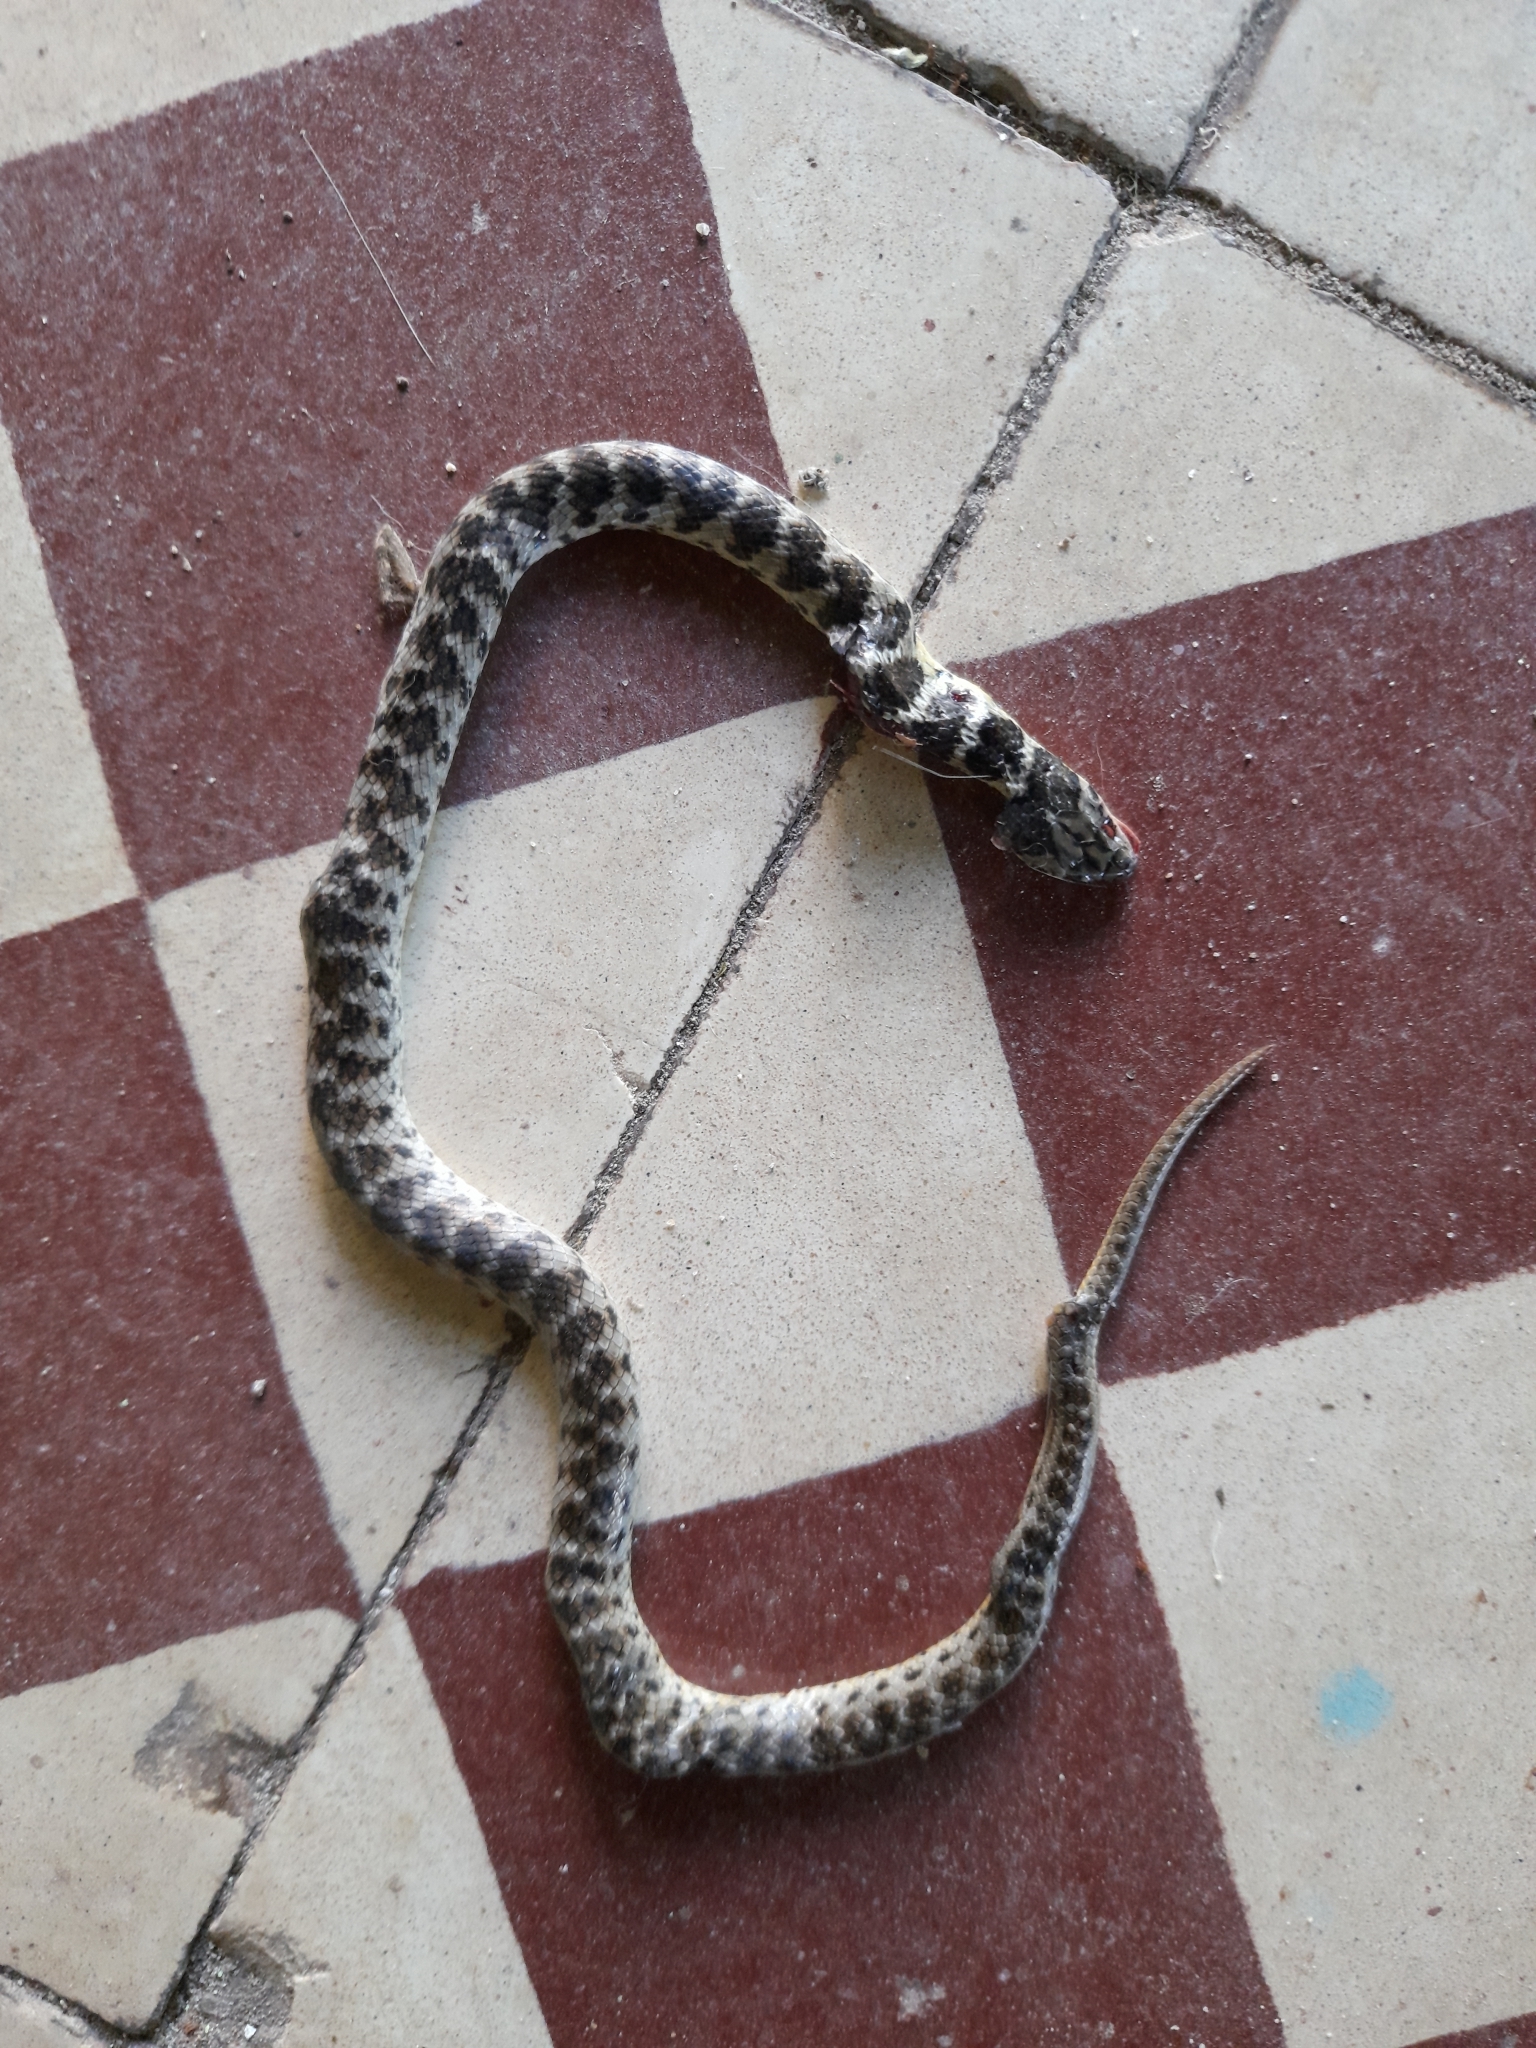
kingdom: Animalia
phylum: Chordata
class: Squamata
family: Colubridae
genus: Erythrolamprus
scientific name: Erythrolamprus poecilogyrus
